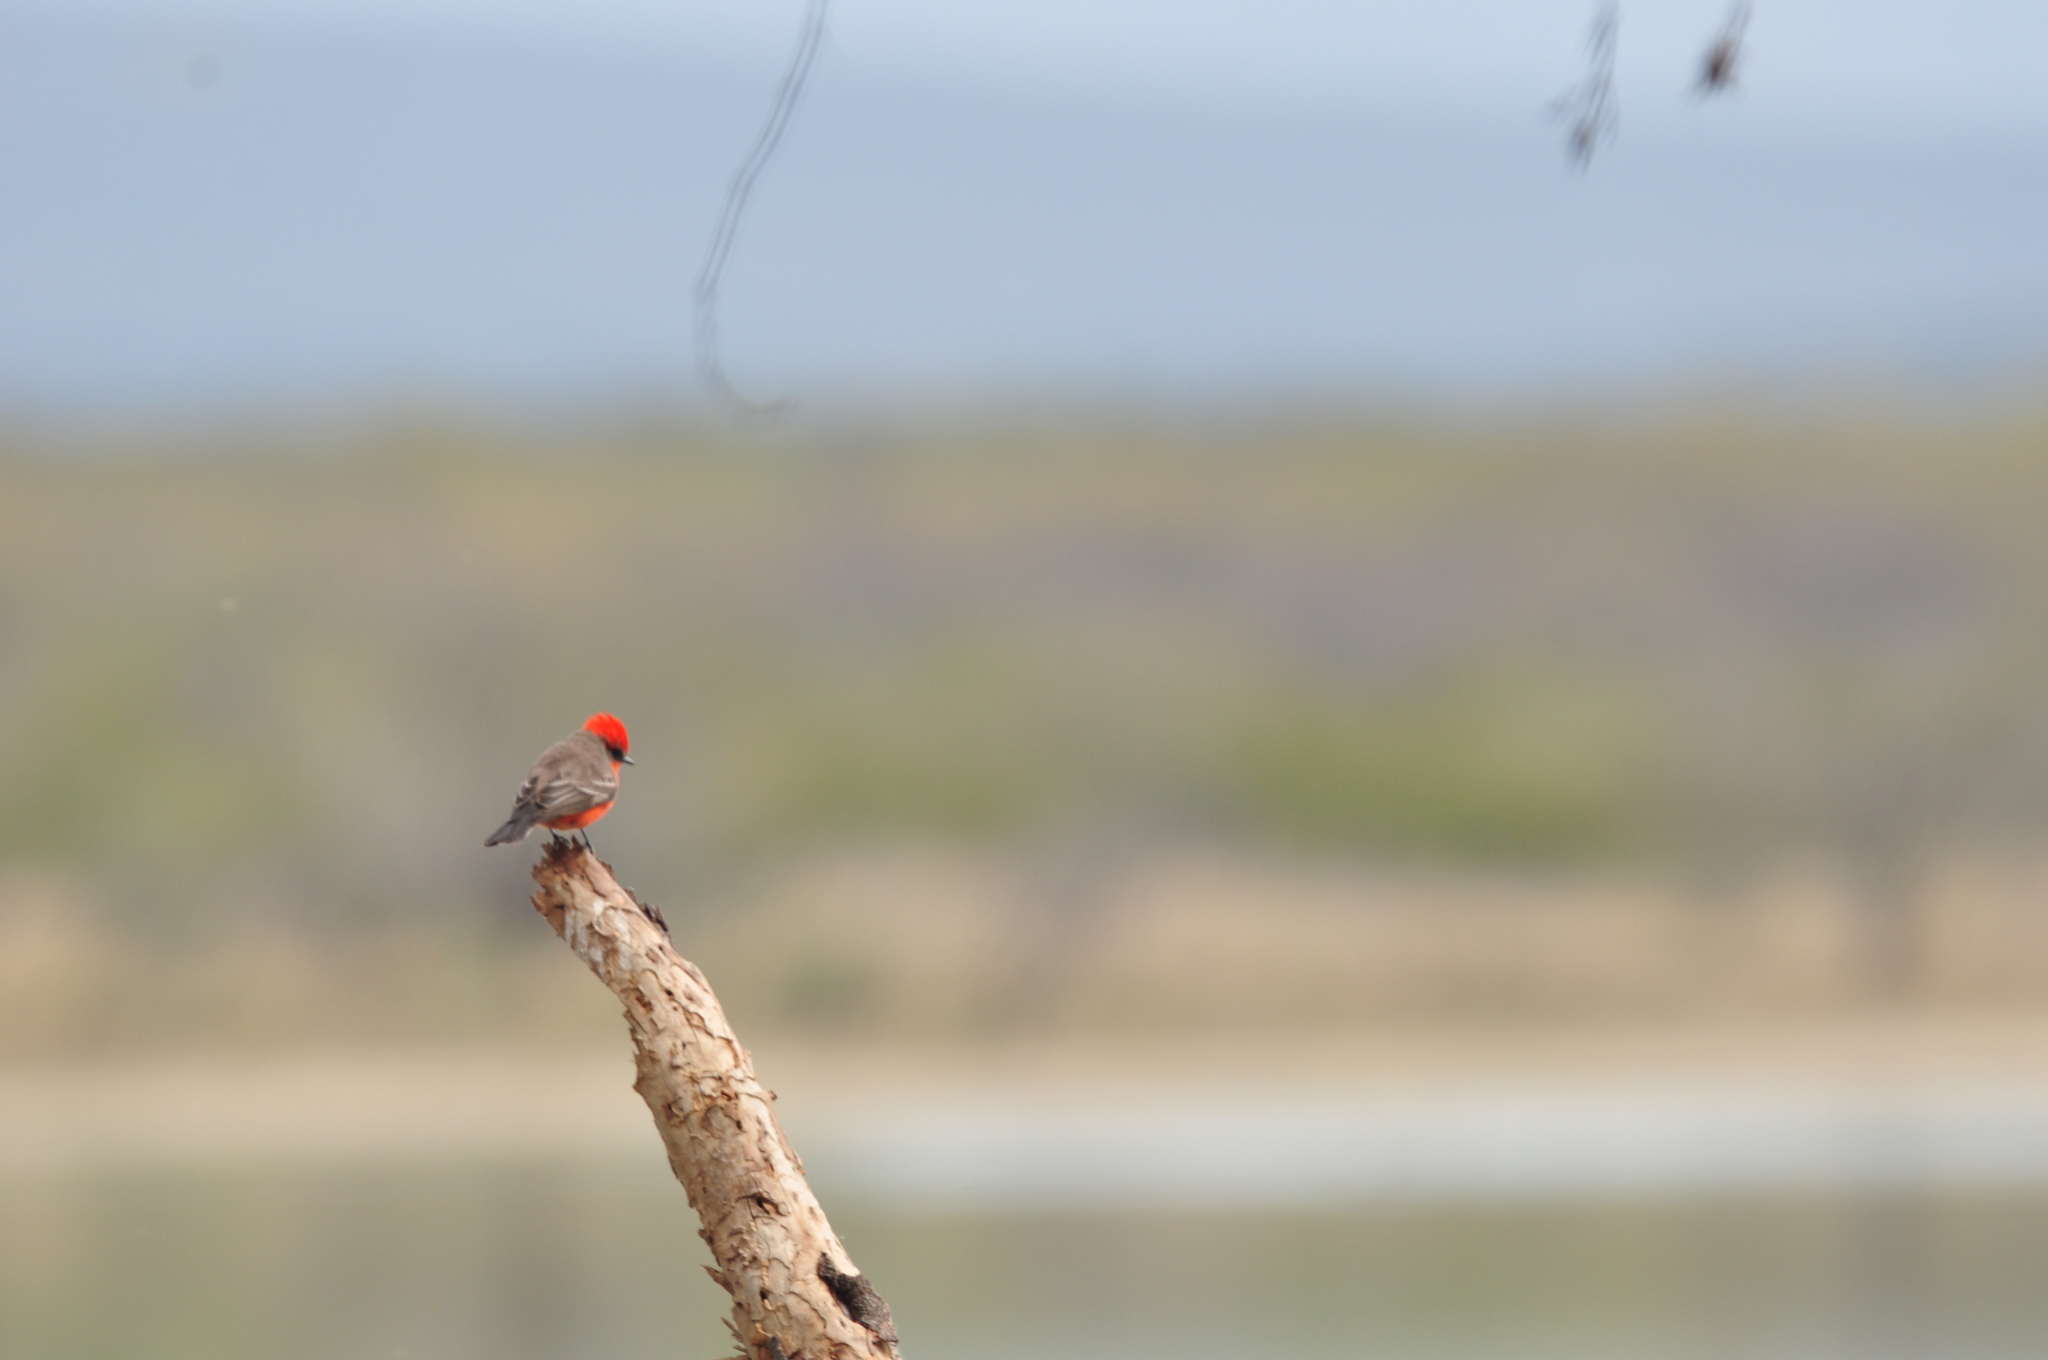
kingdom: Animalia
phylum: Chordata
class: Aves
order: Passeriformes
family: Tyrannidae
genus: Pyrocephalus
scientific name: Pyrocephalus rubinus
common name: Vermilion flycatcher
